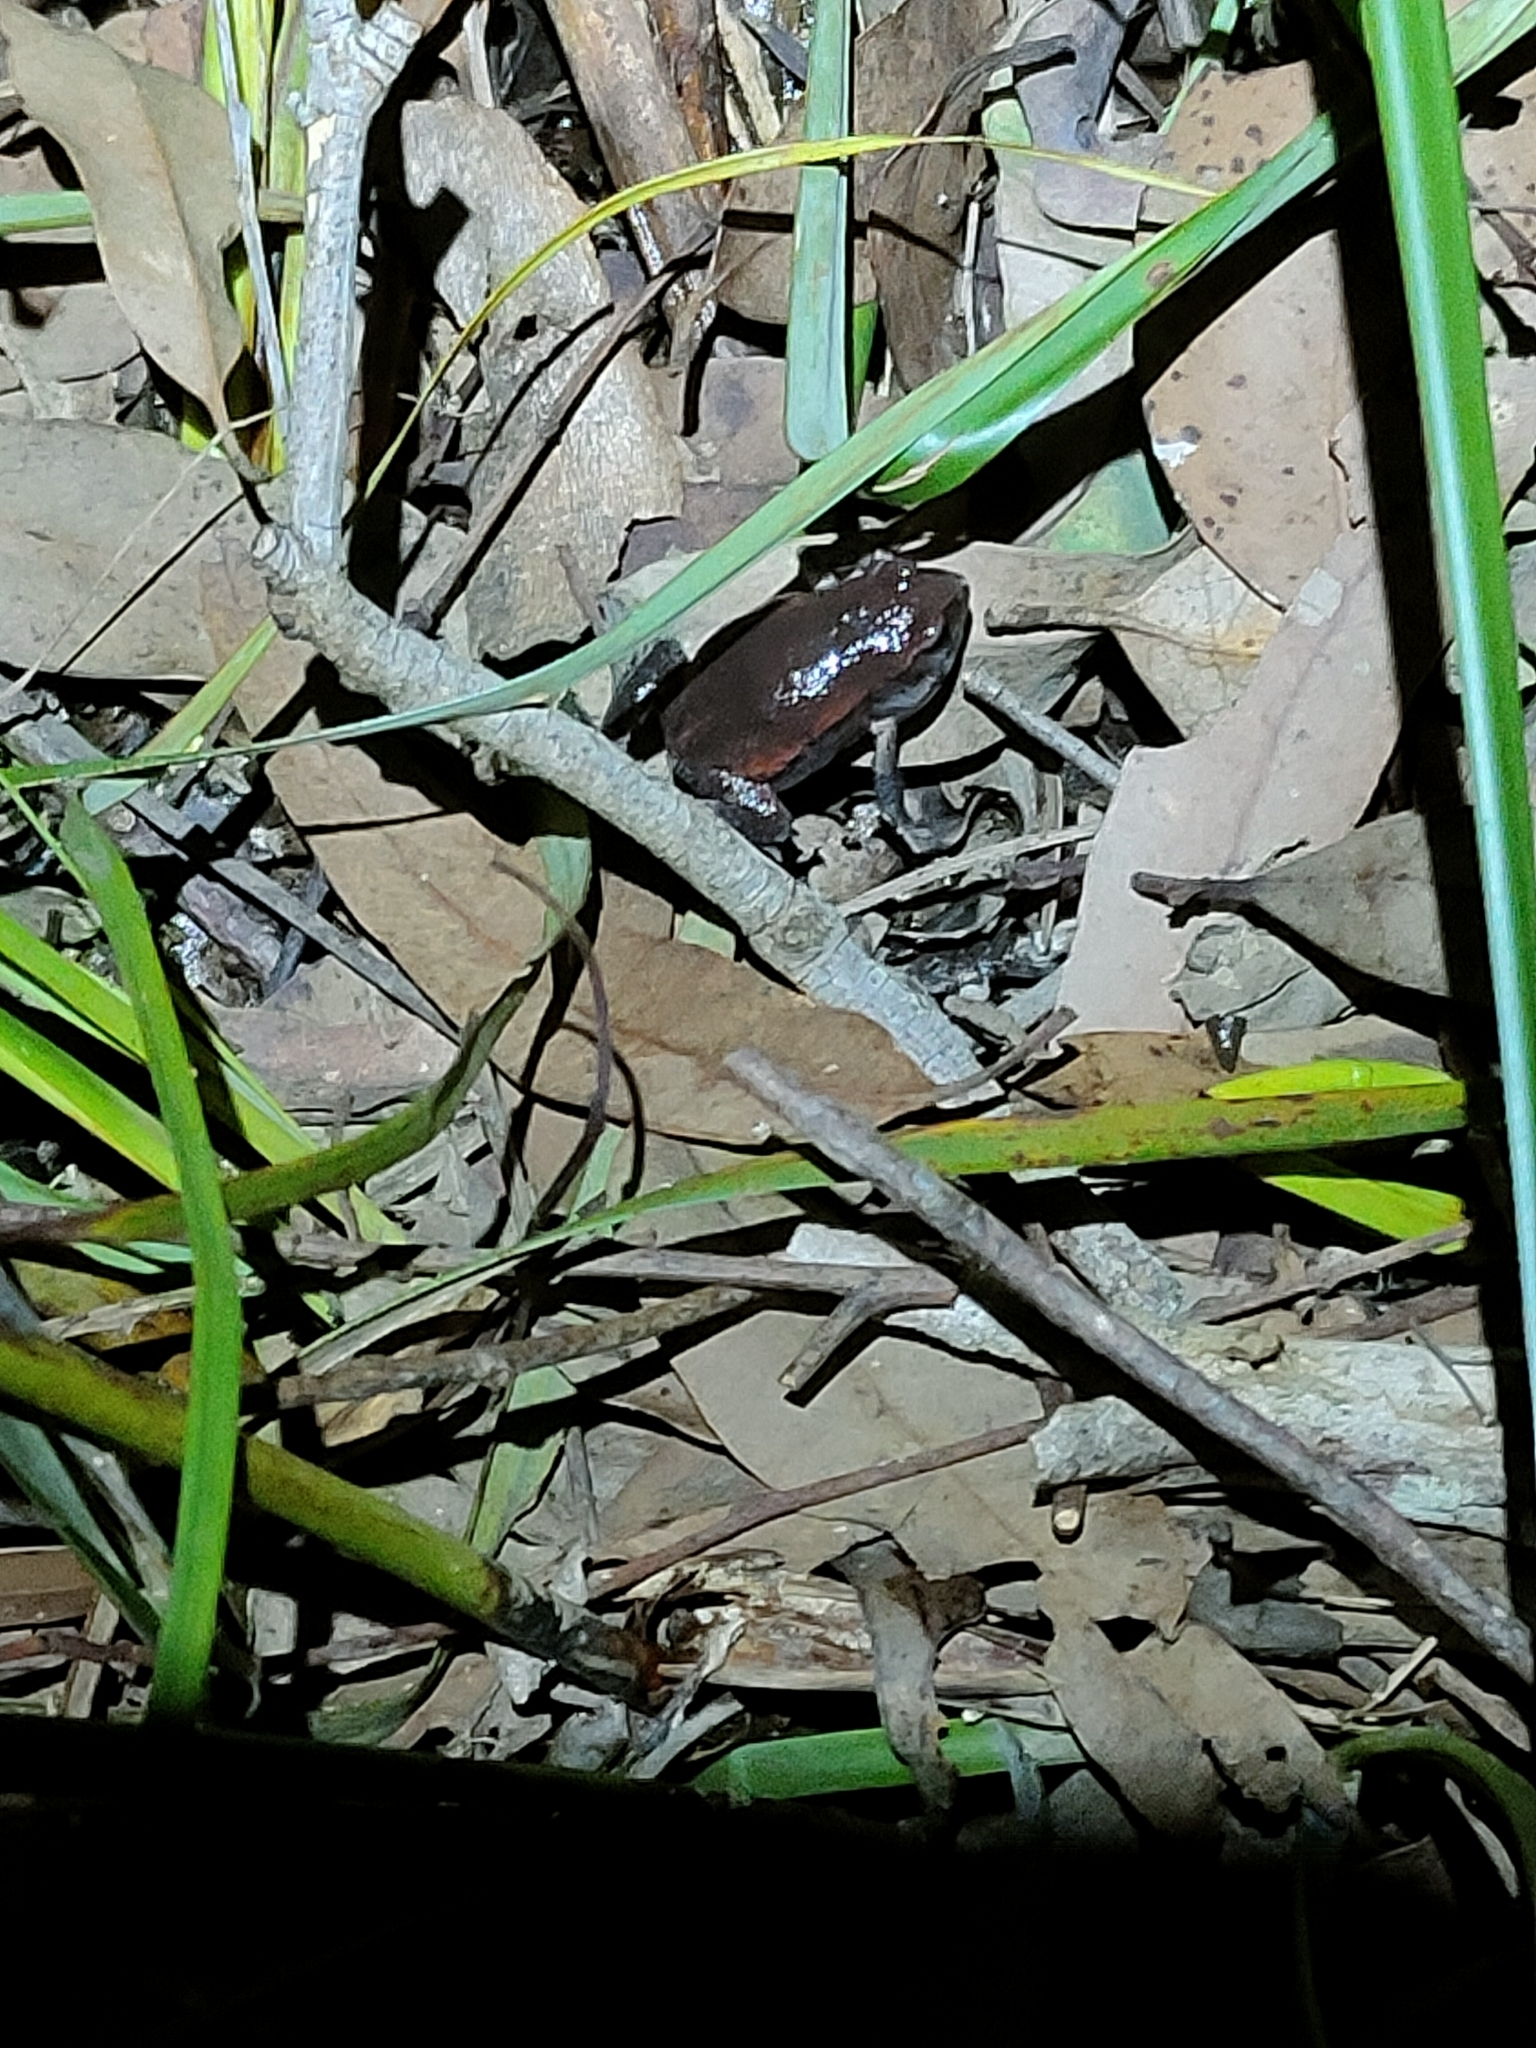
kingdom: Animalia
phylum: Chordata
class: Amphibia
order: Anura
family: Myobatrachidae
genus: Pseudophryne
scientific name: Pseudophryne raveni
